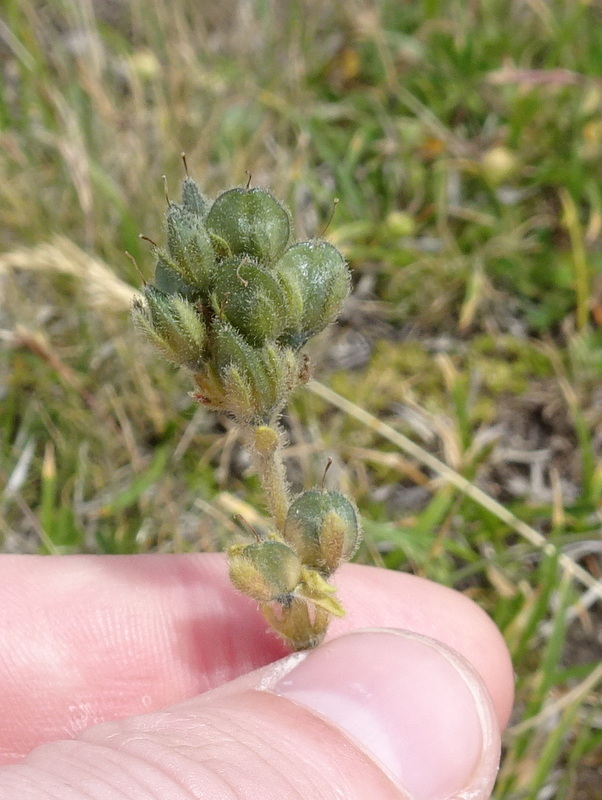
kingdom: Plantae
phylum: Tracheophyta
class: Magnoliopsida
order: Lamiales
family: Plantaginaceae
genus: Veronica
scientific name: Veronica bellidioides
